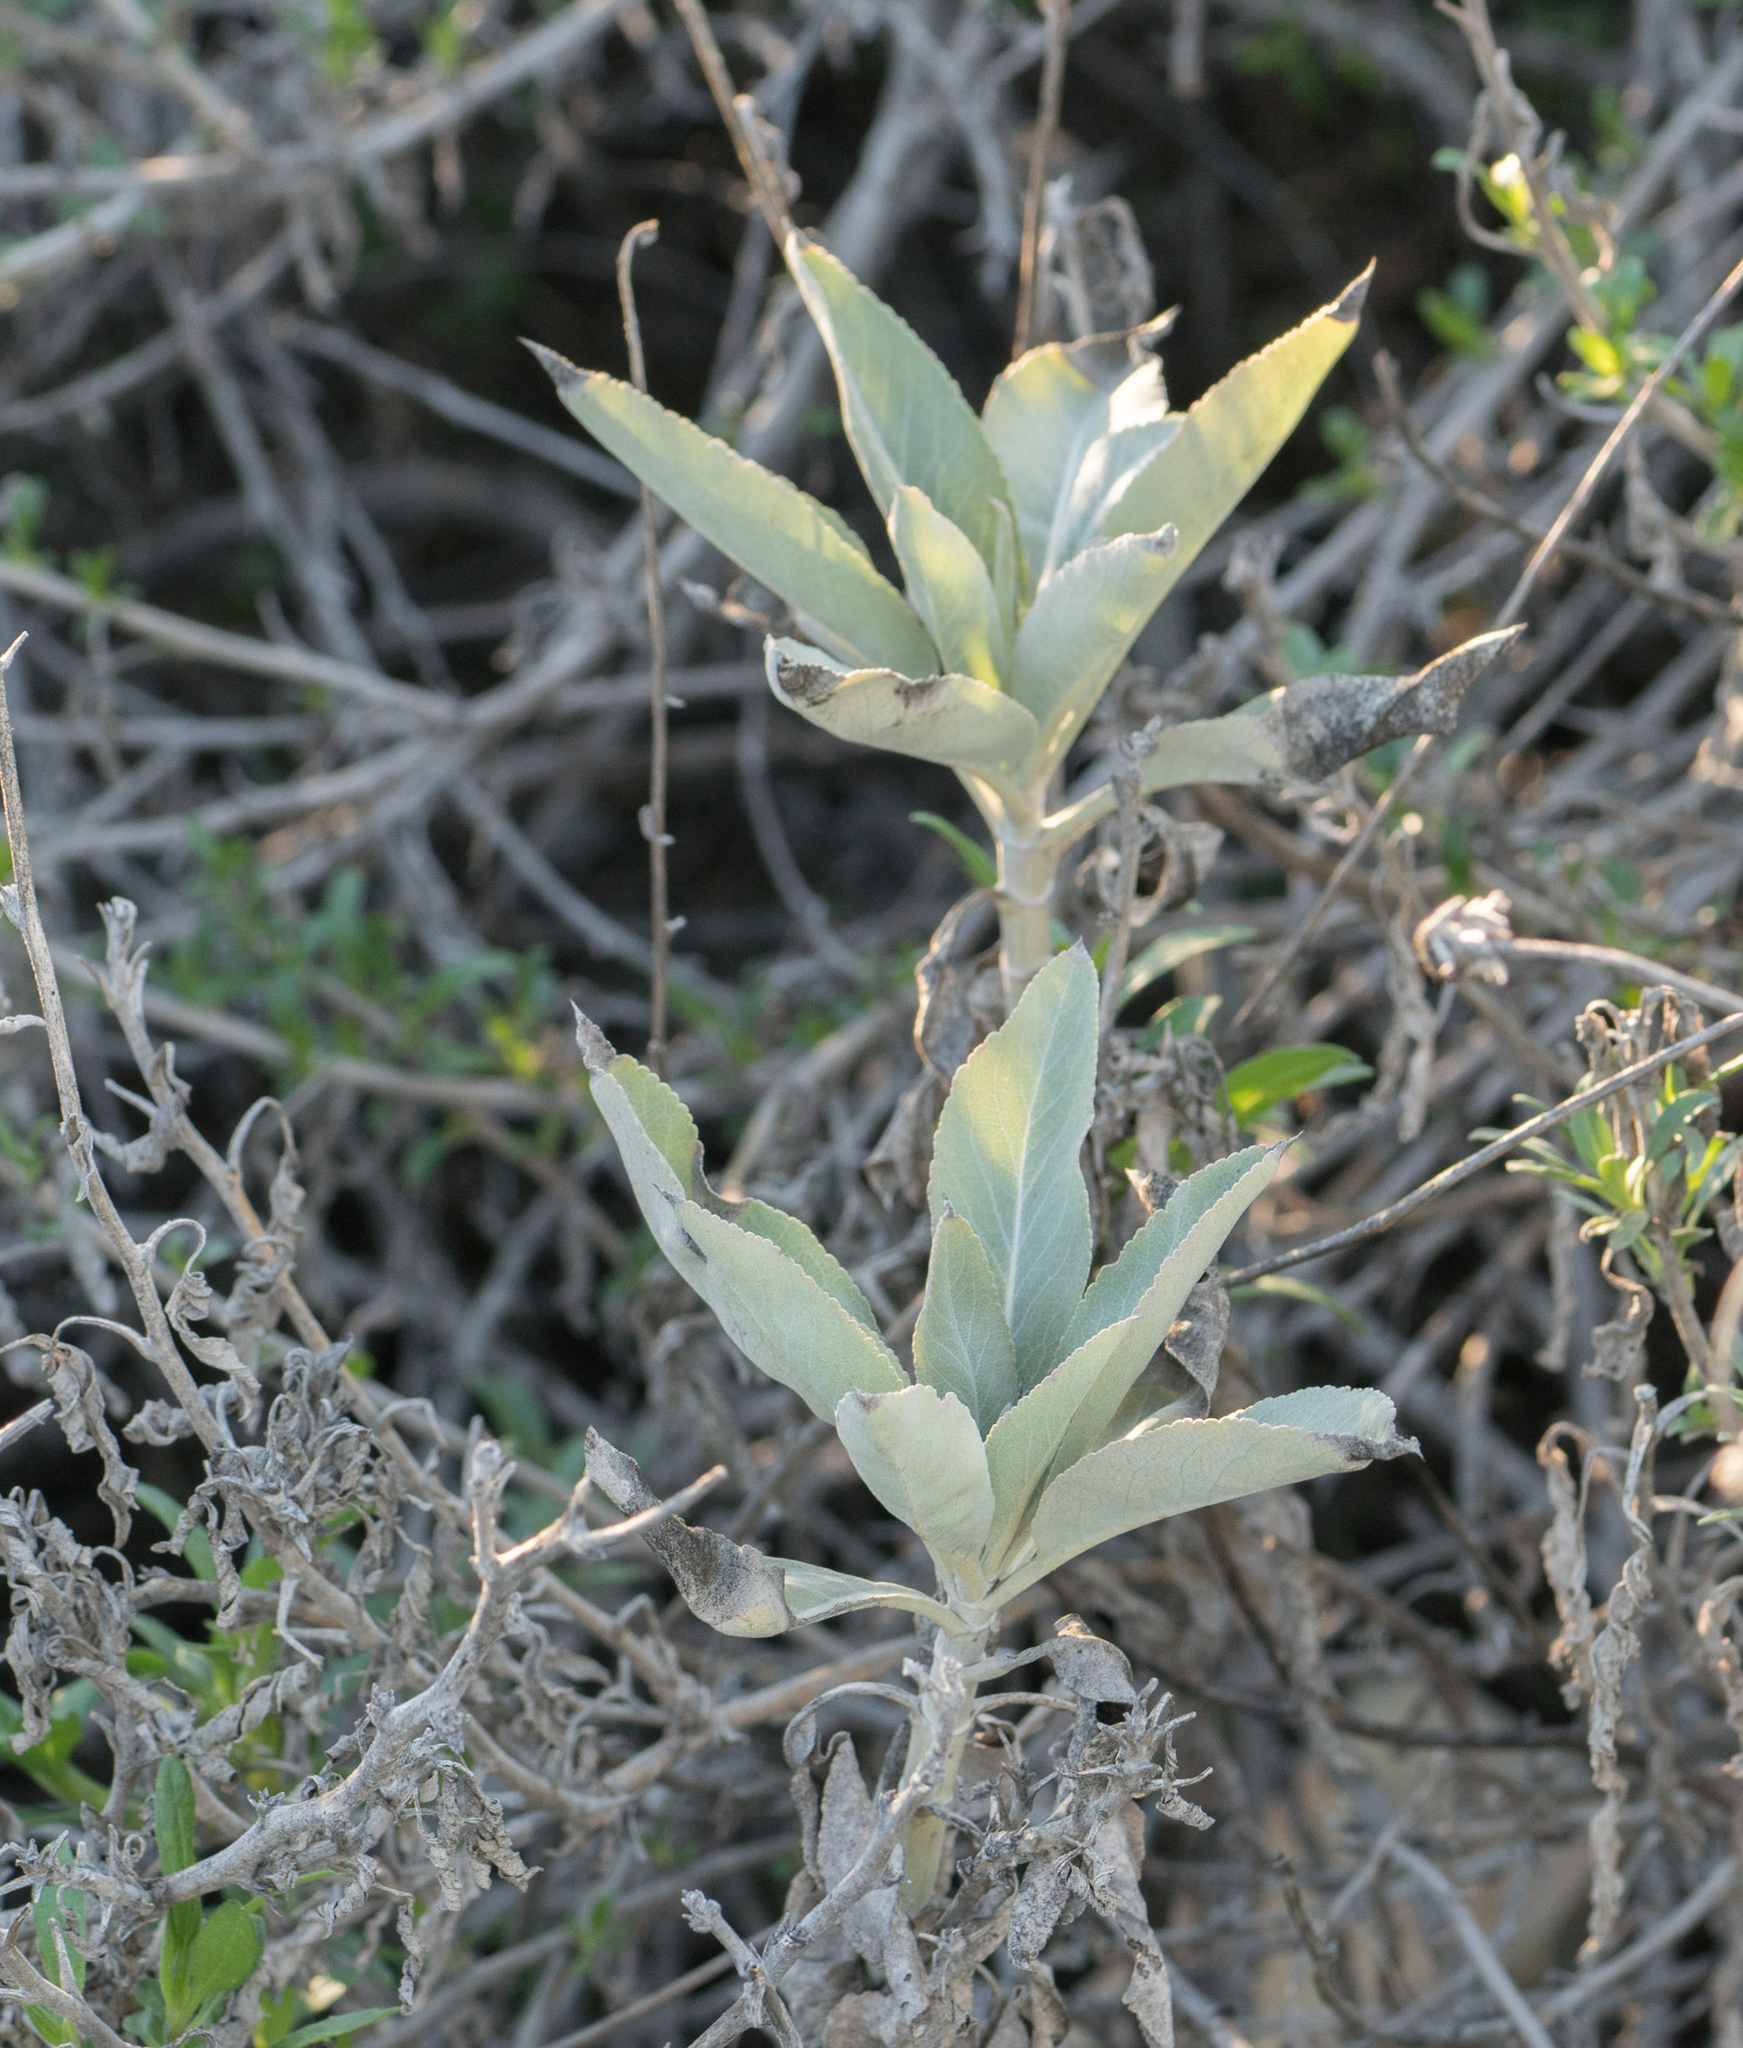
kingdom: Plantae
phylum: Tracheophyta
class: Magnoliopsida
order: Lamiales
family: Lamiaceae
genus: Salvia
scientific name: Salvia apiana
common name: White sage
